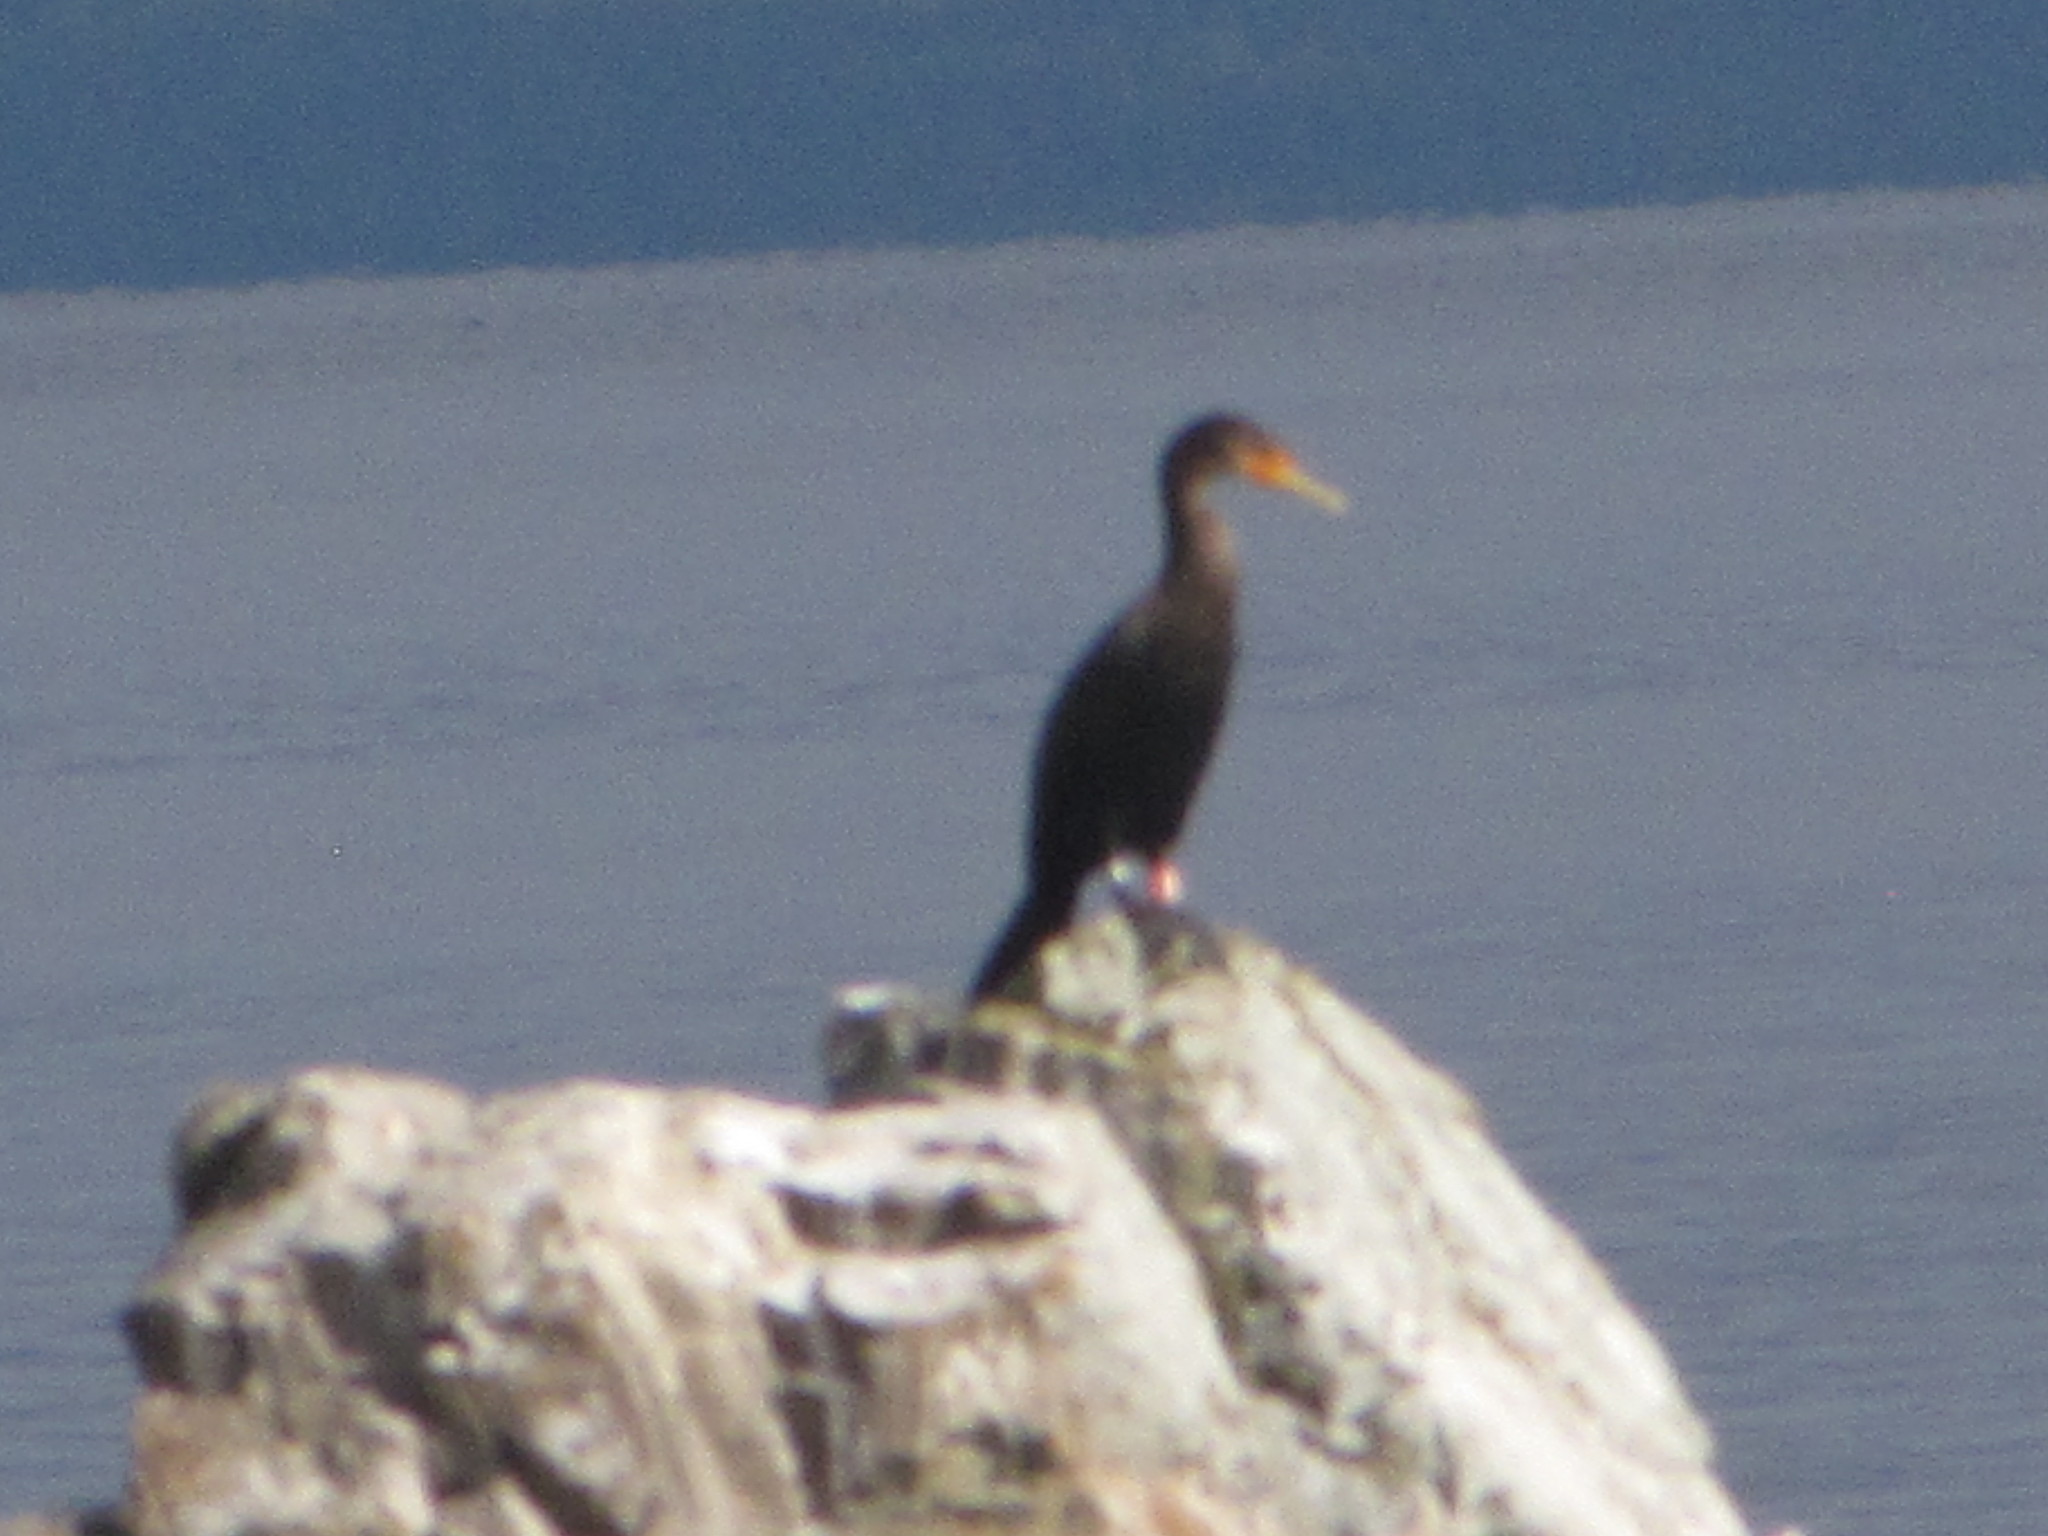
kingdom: Animalia
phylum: Chordata
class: Aves
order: Suliformes
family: Phalacrocoracidae
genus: Phalacrocorax
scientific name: Phalacrocorax auritus
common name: Double-crested cormorant
